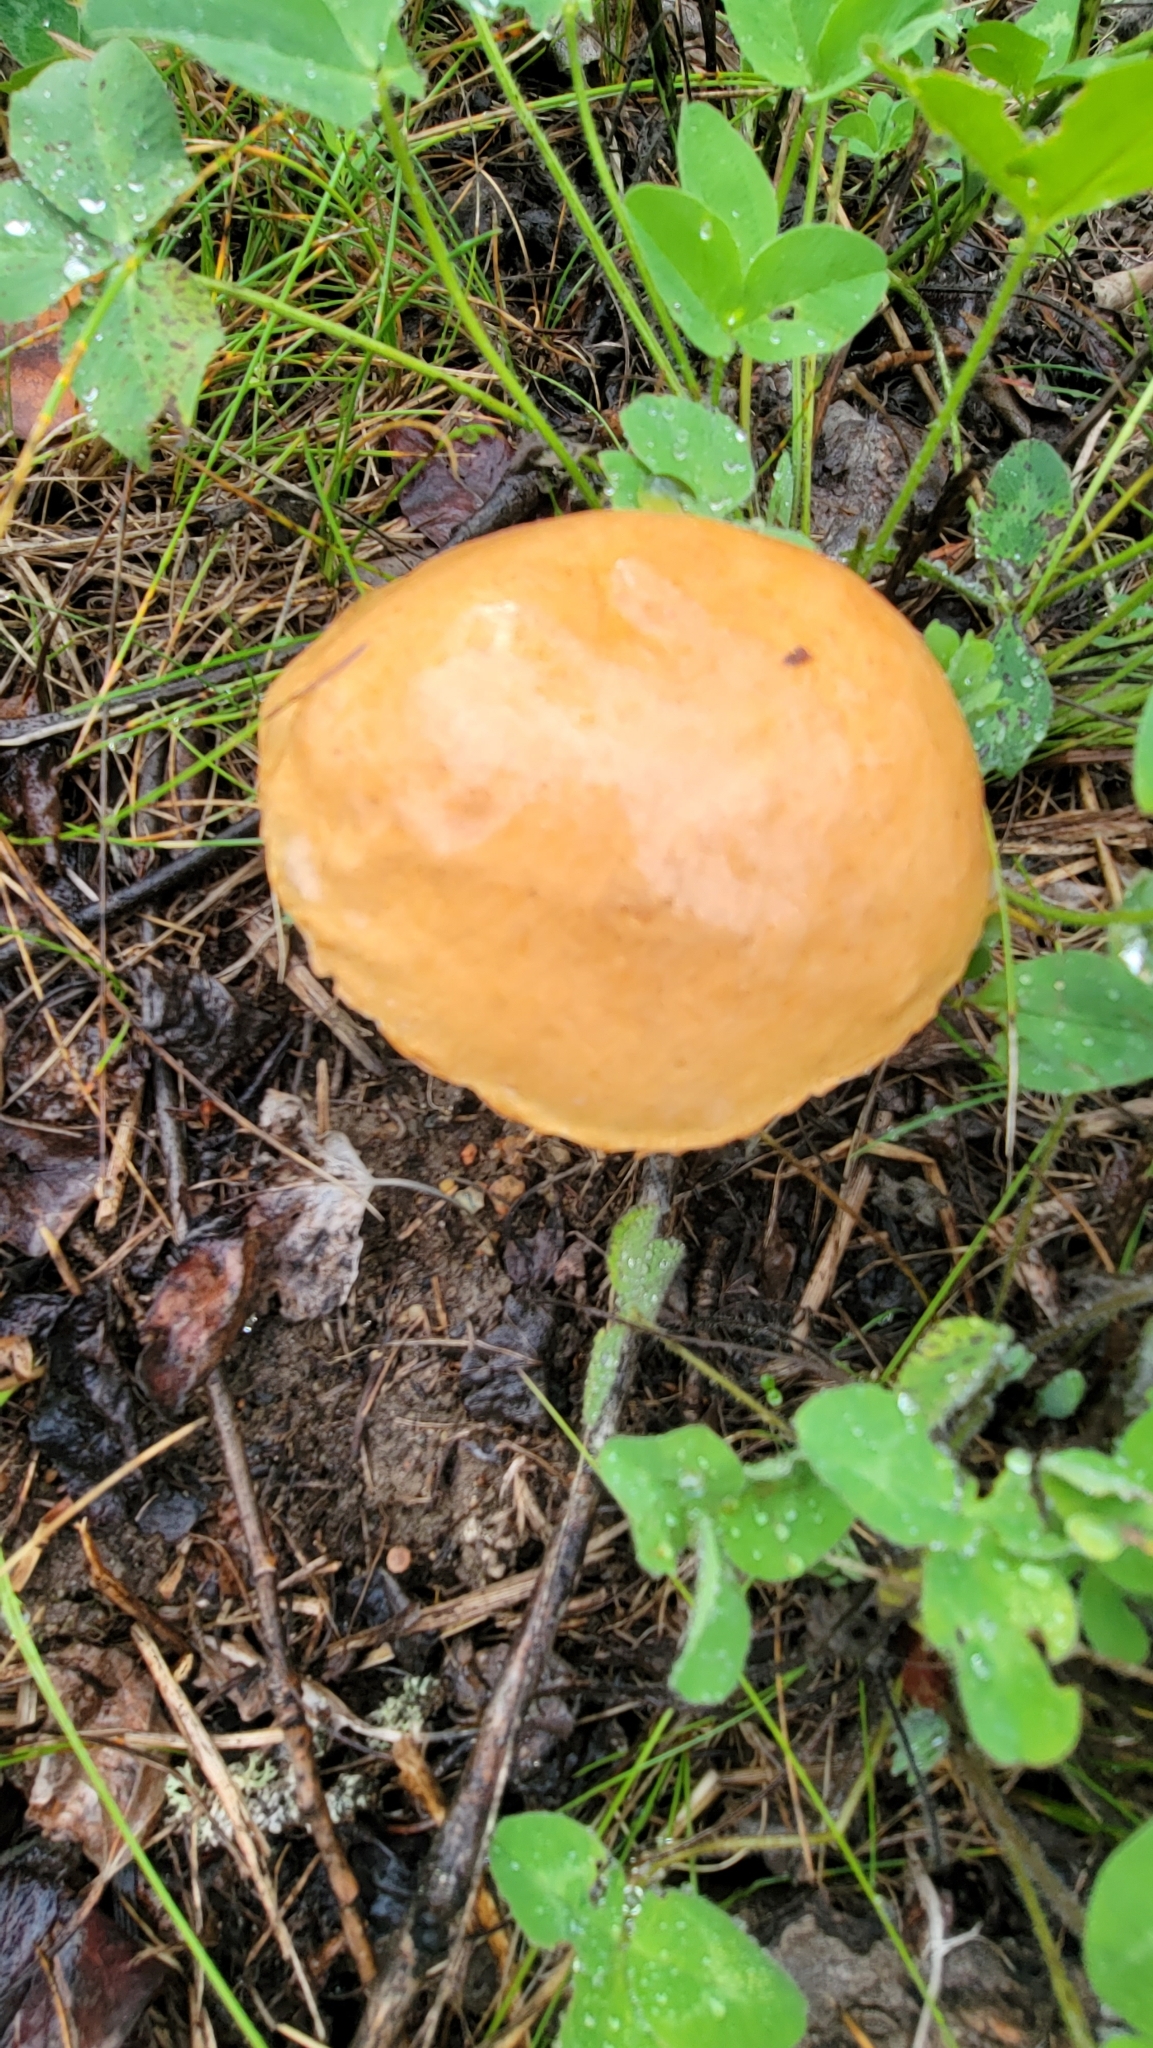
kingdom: Fungi
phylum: Basidiomycota
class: Agaricomycetes
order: Boletales
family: Boletaceae
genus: Leccinum
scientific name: Leccinum insigne
